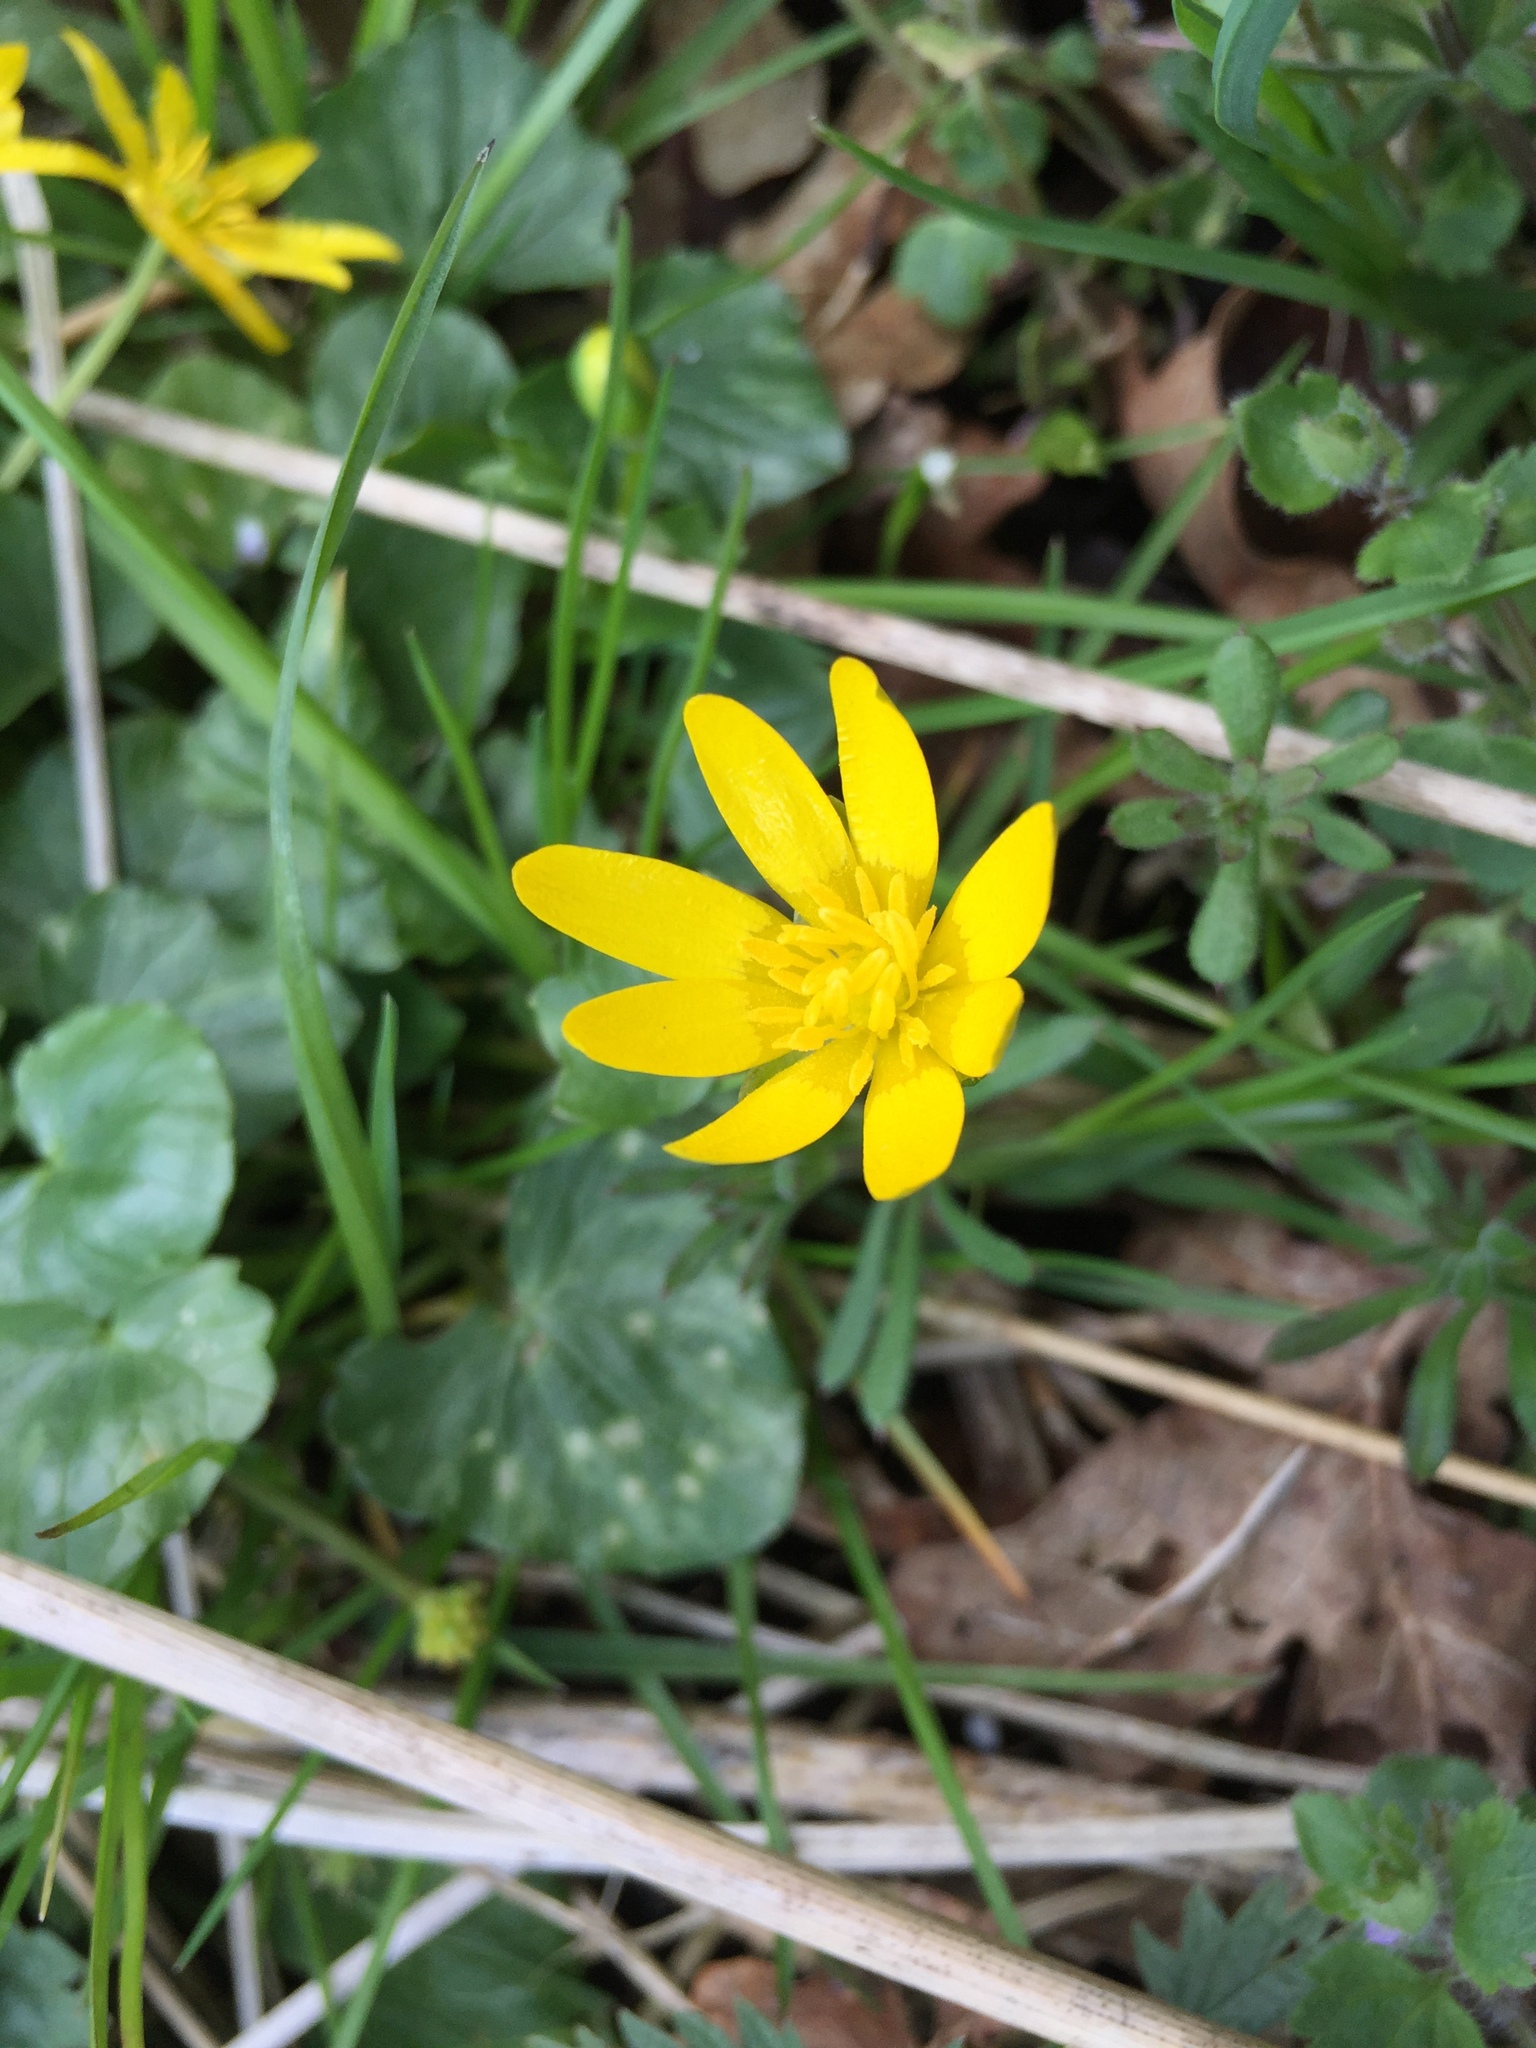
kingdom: Plantae
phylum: Tracheophyta
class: Magnoliopsida
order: Ranunculales
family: Ranunculaceae
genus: Ficaria
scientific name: Ficaria verna
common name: Lesser celandine
